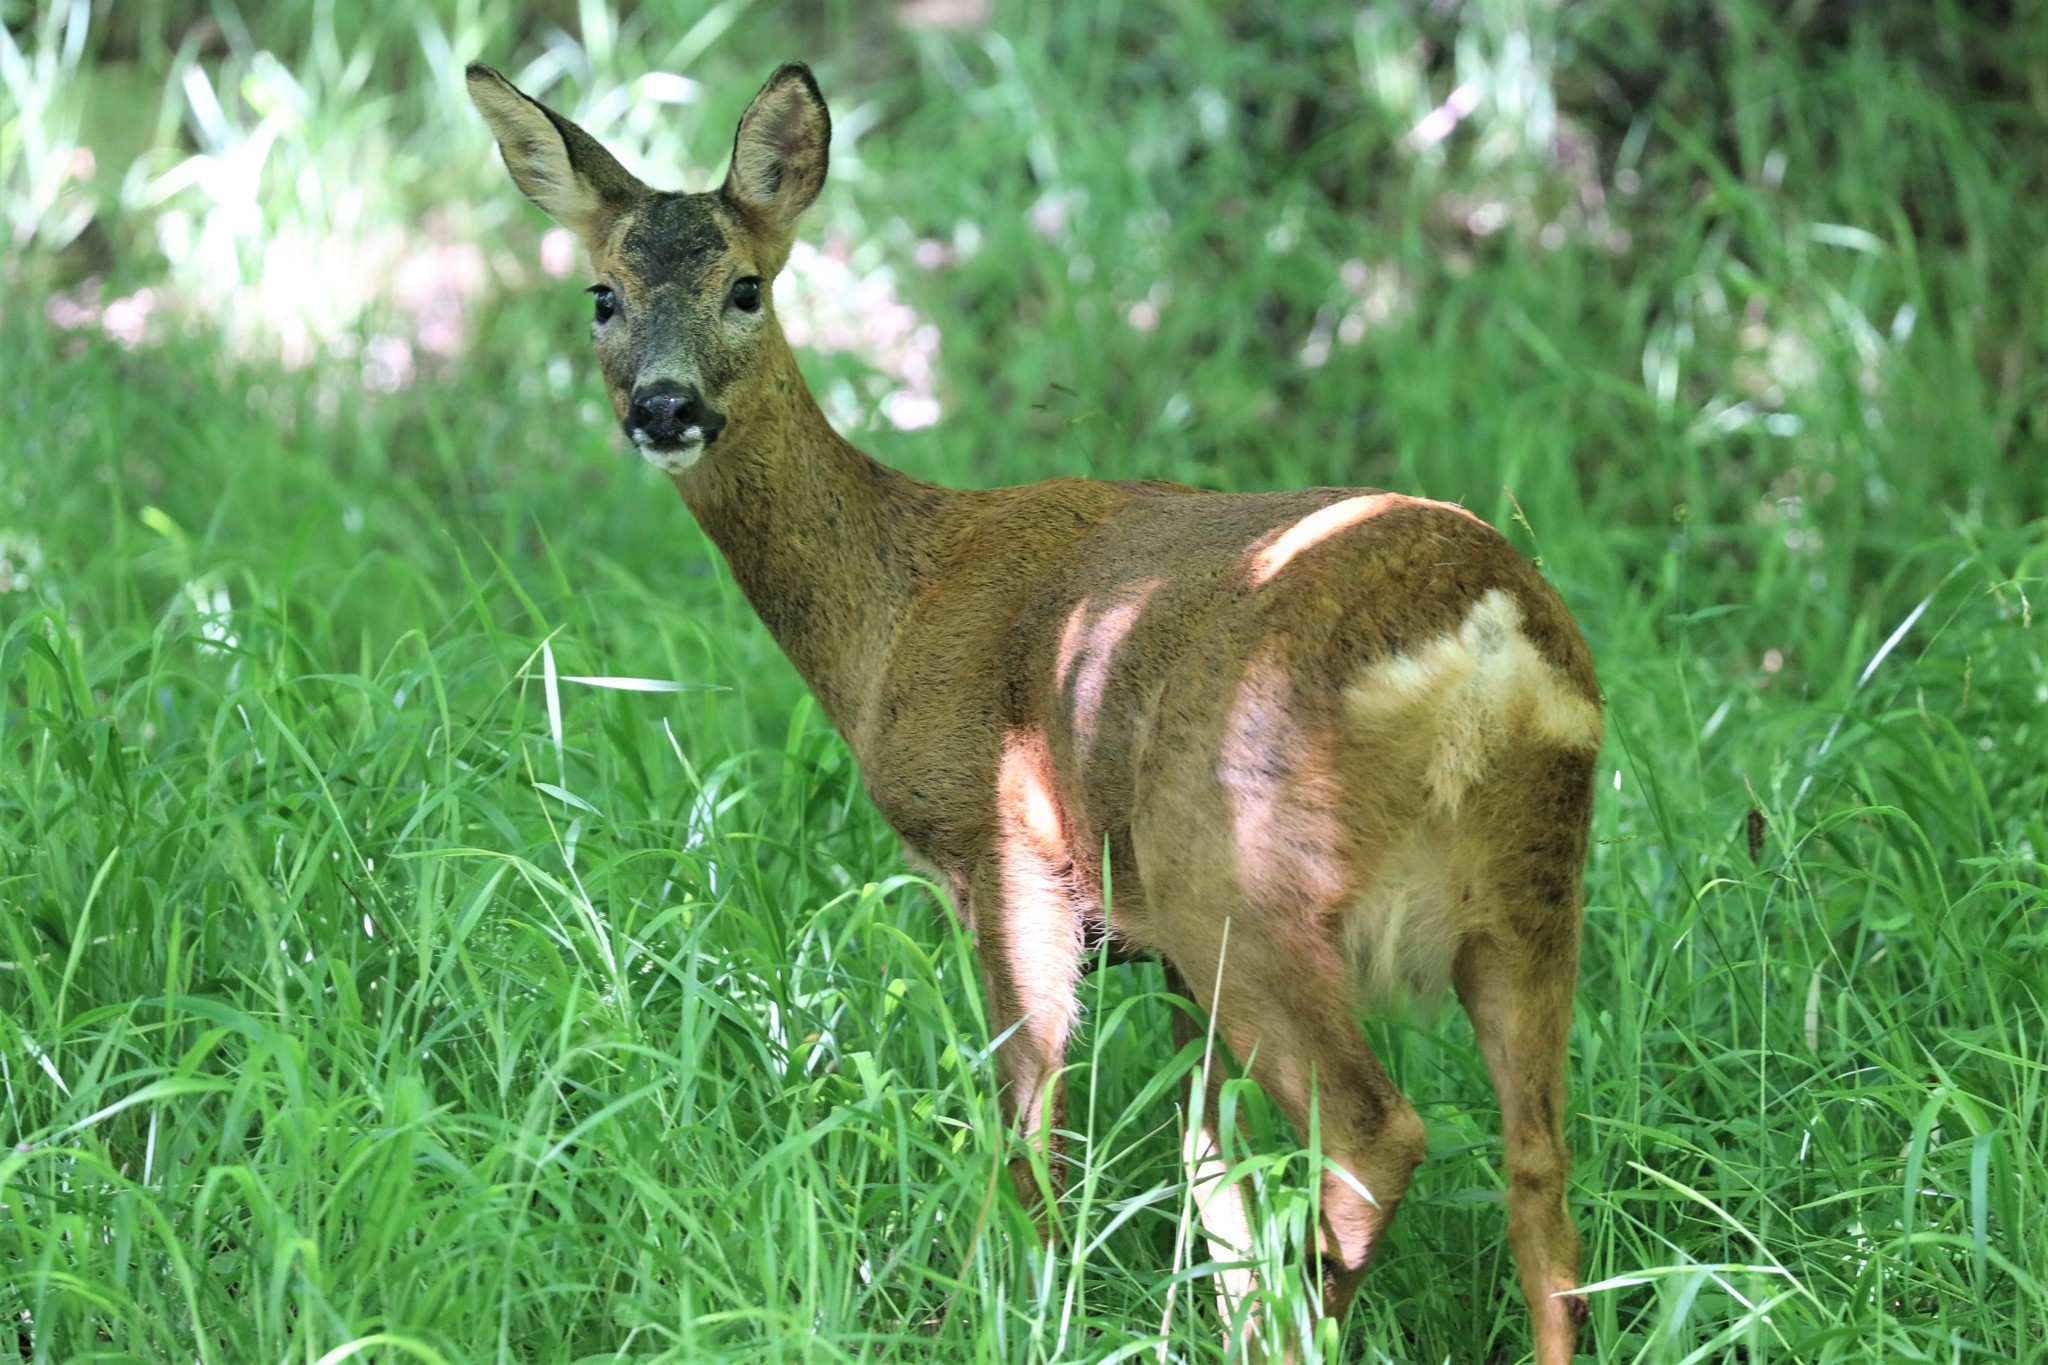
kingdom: Animalia
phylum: Chordata
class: Mammalia
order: Artiodactyla
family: Cervidae
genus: Capreolus
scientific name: Capreolus capreolus
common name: Western roe deer
